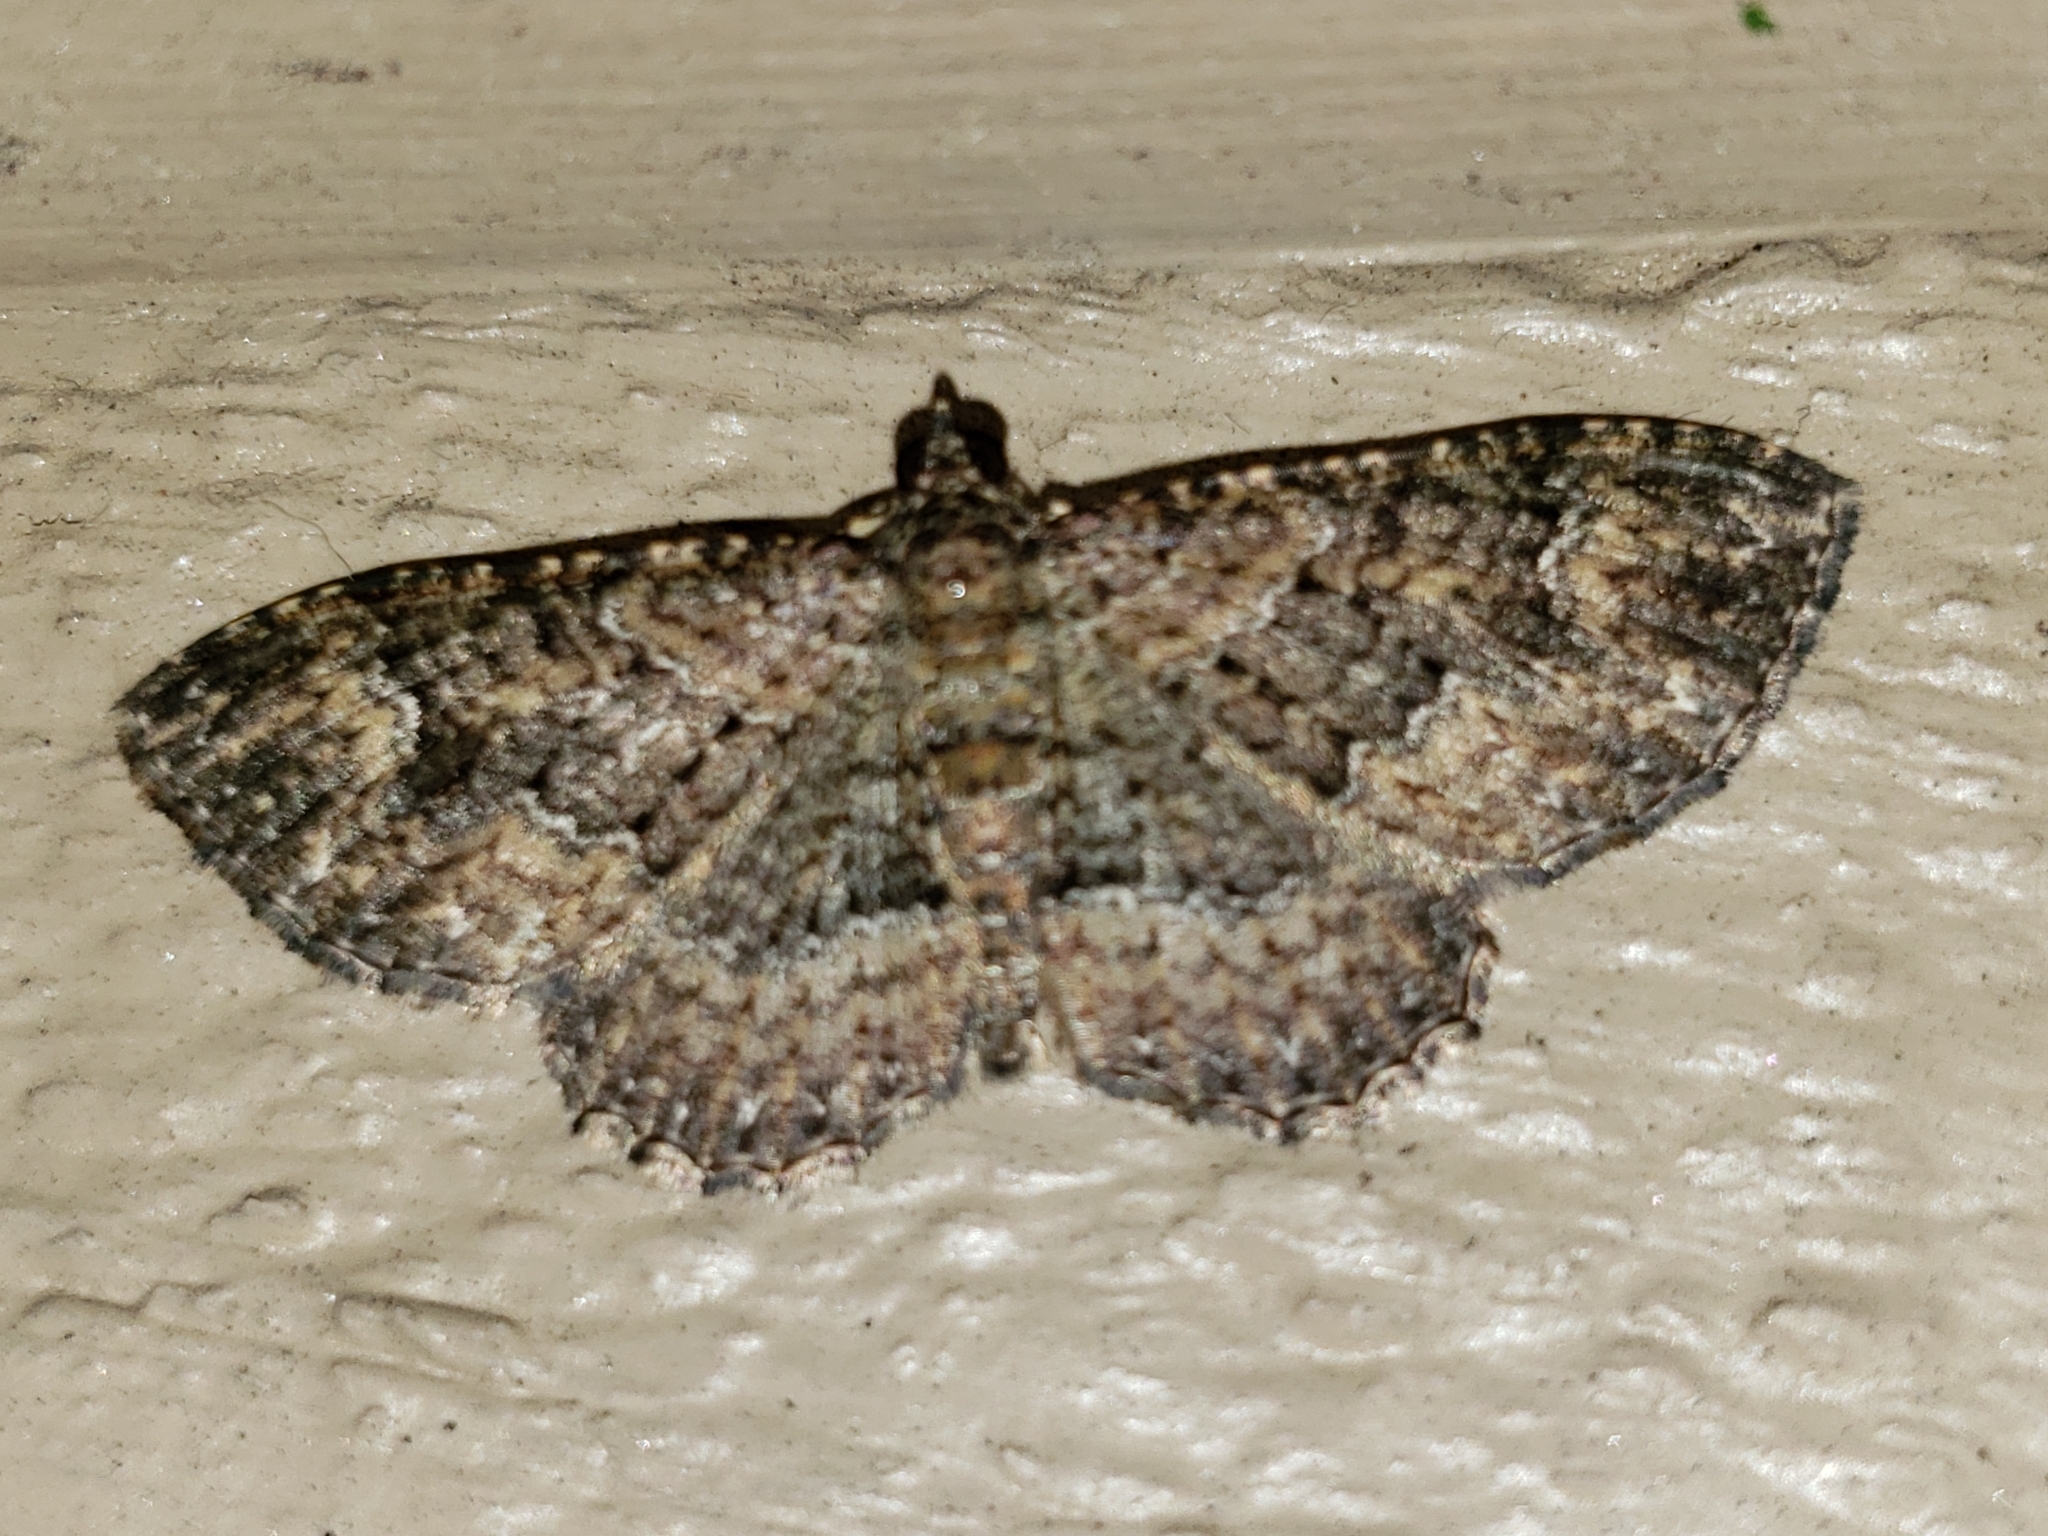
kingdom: Animalia
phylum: Arthropoda
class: Insecta
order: Lepidoptera
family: Geometridae
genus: Disclisioprocta
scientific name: Disclisioprocta stellata
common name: Somber carpet
